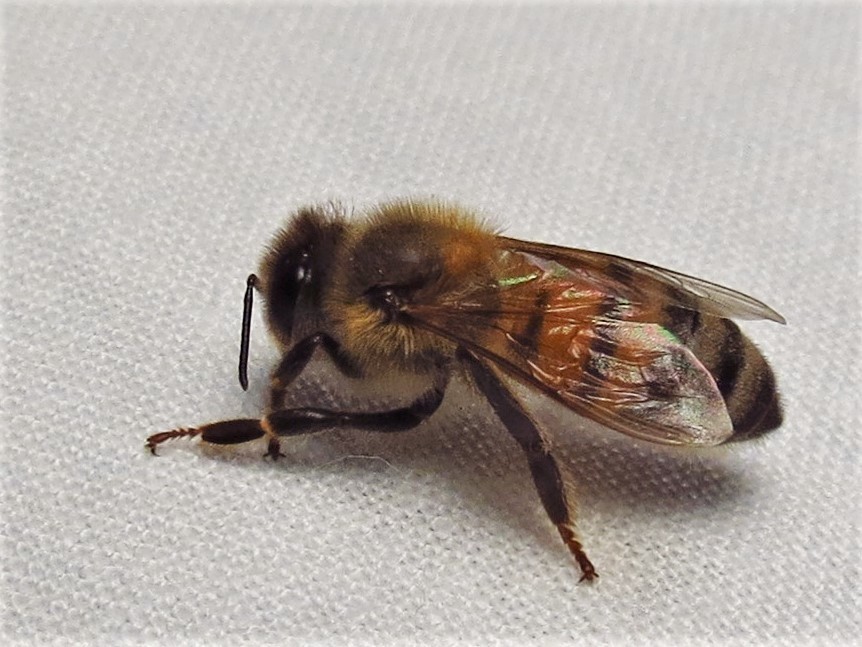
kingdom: Animalia
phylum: Arthropoda
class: Insecta
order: Hymenoptera
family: Apidae
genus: Apis
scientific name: Apis mellifera
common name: Honey bee
